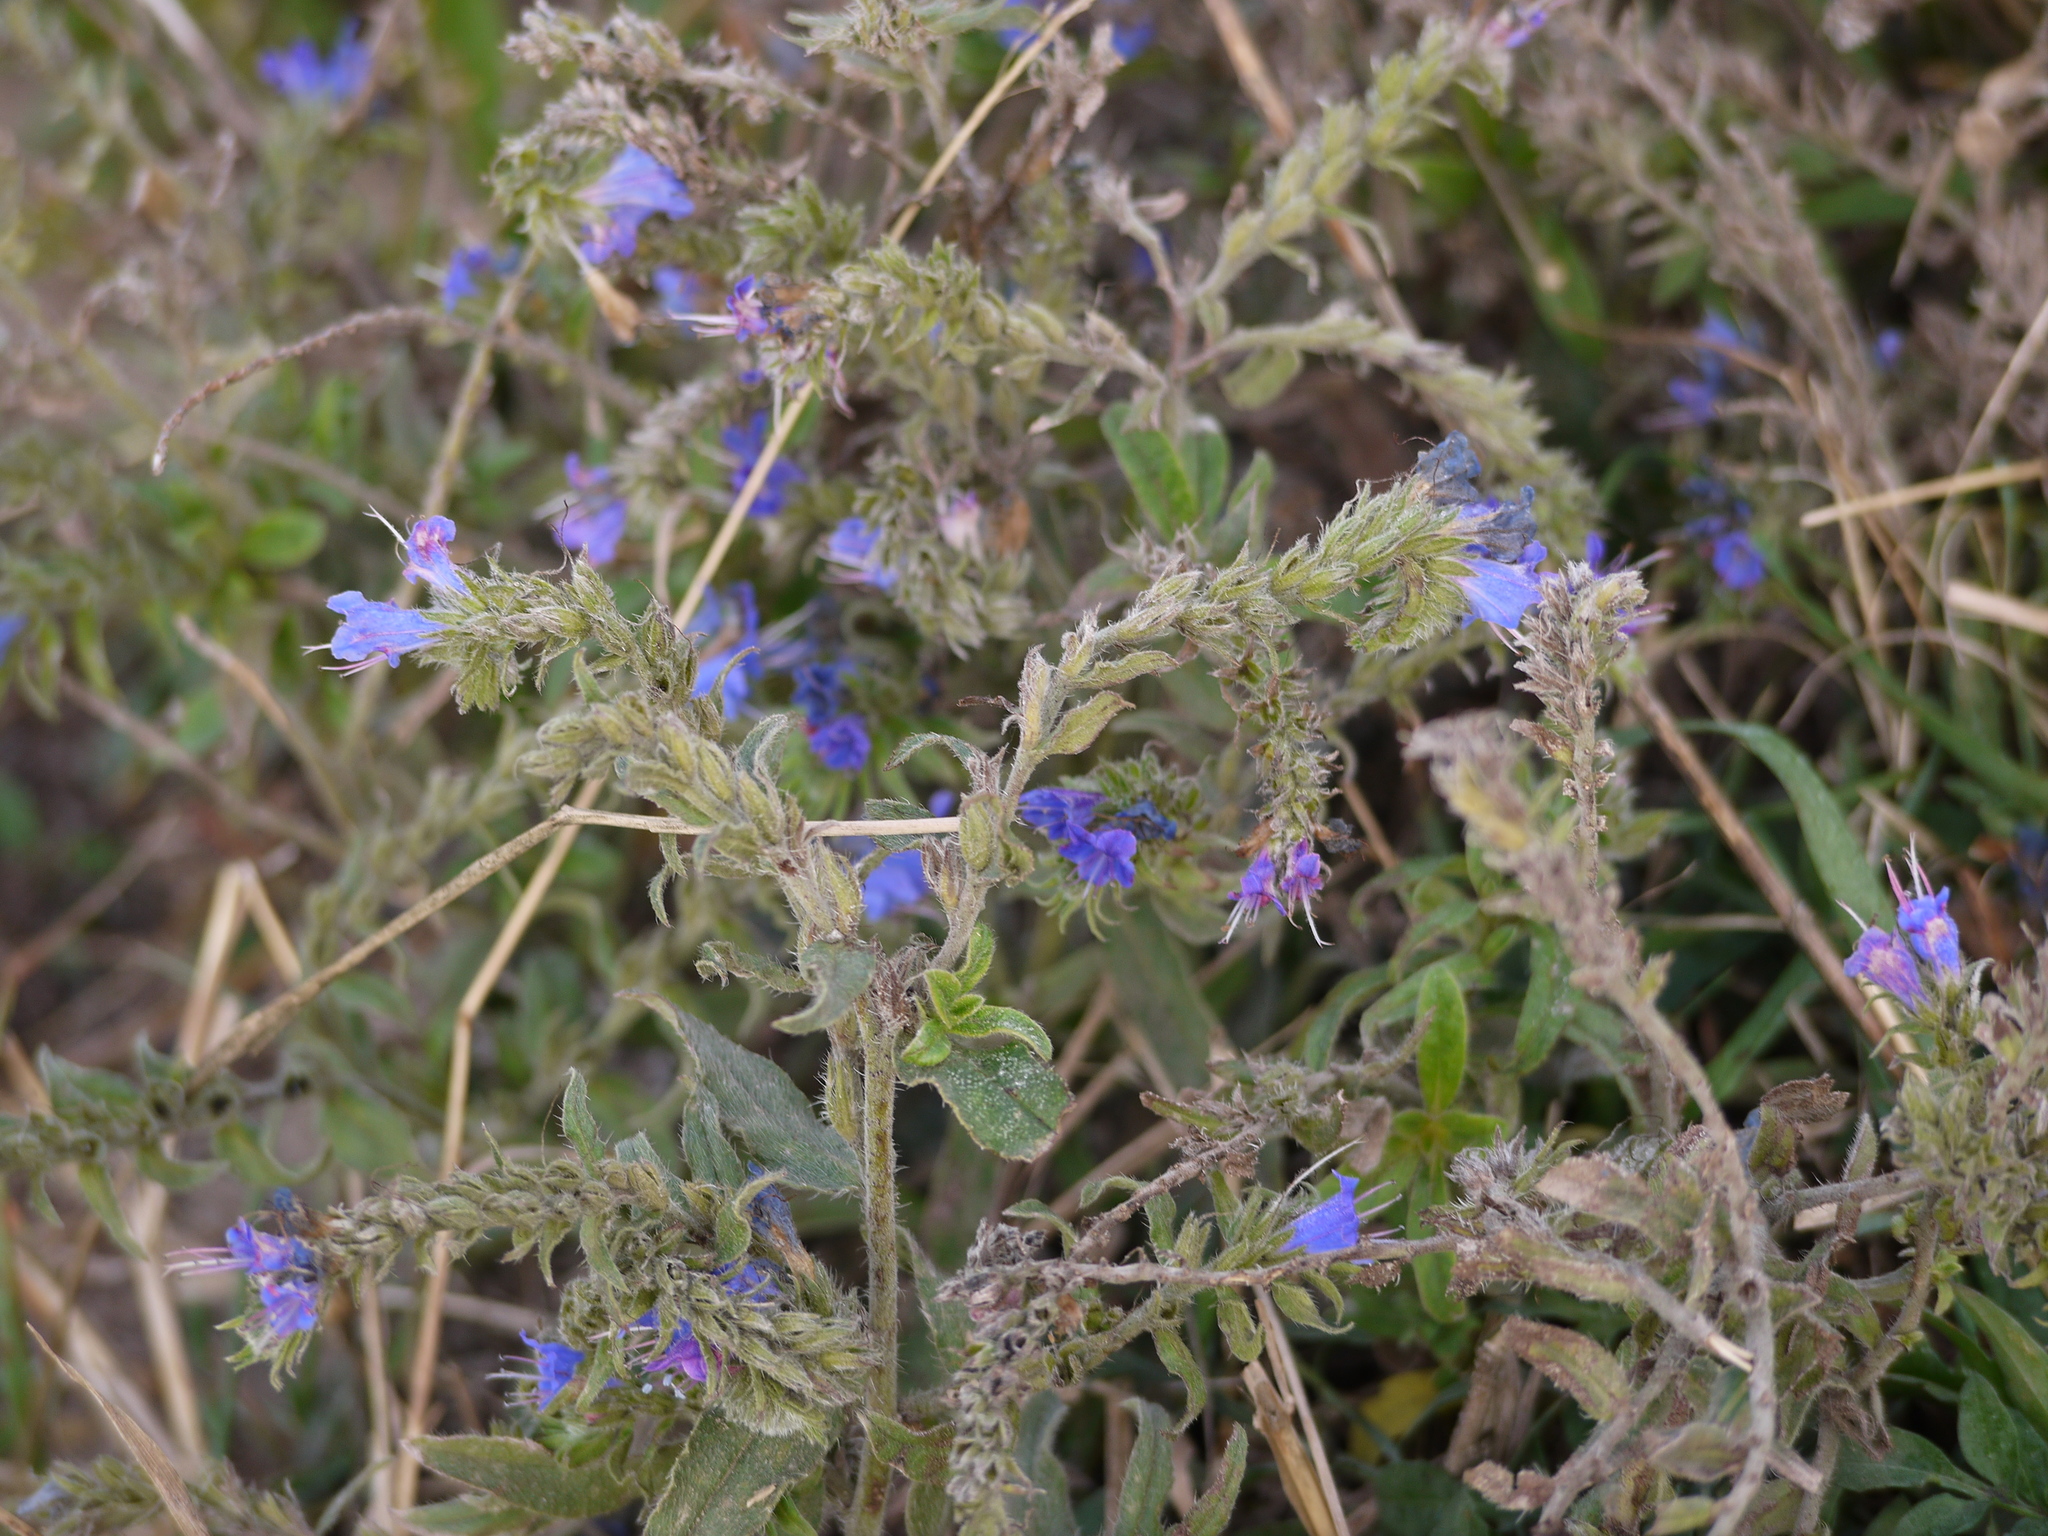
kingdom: Plantae
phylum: Tracheophyta
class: Magnoliopsida
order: Boraginales
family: Boraginaceae
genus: Echium
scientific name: Echium vulgare
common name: Common viper's bugloss
